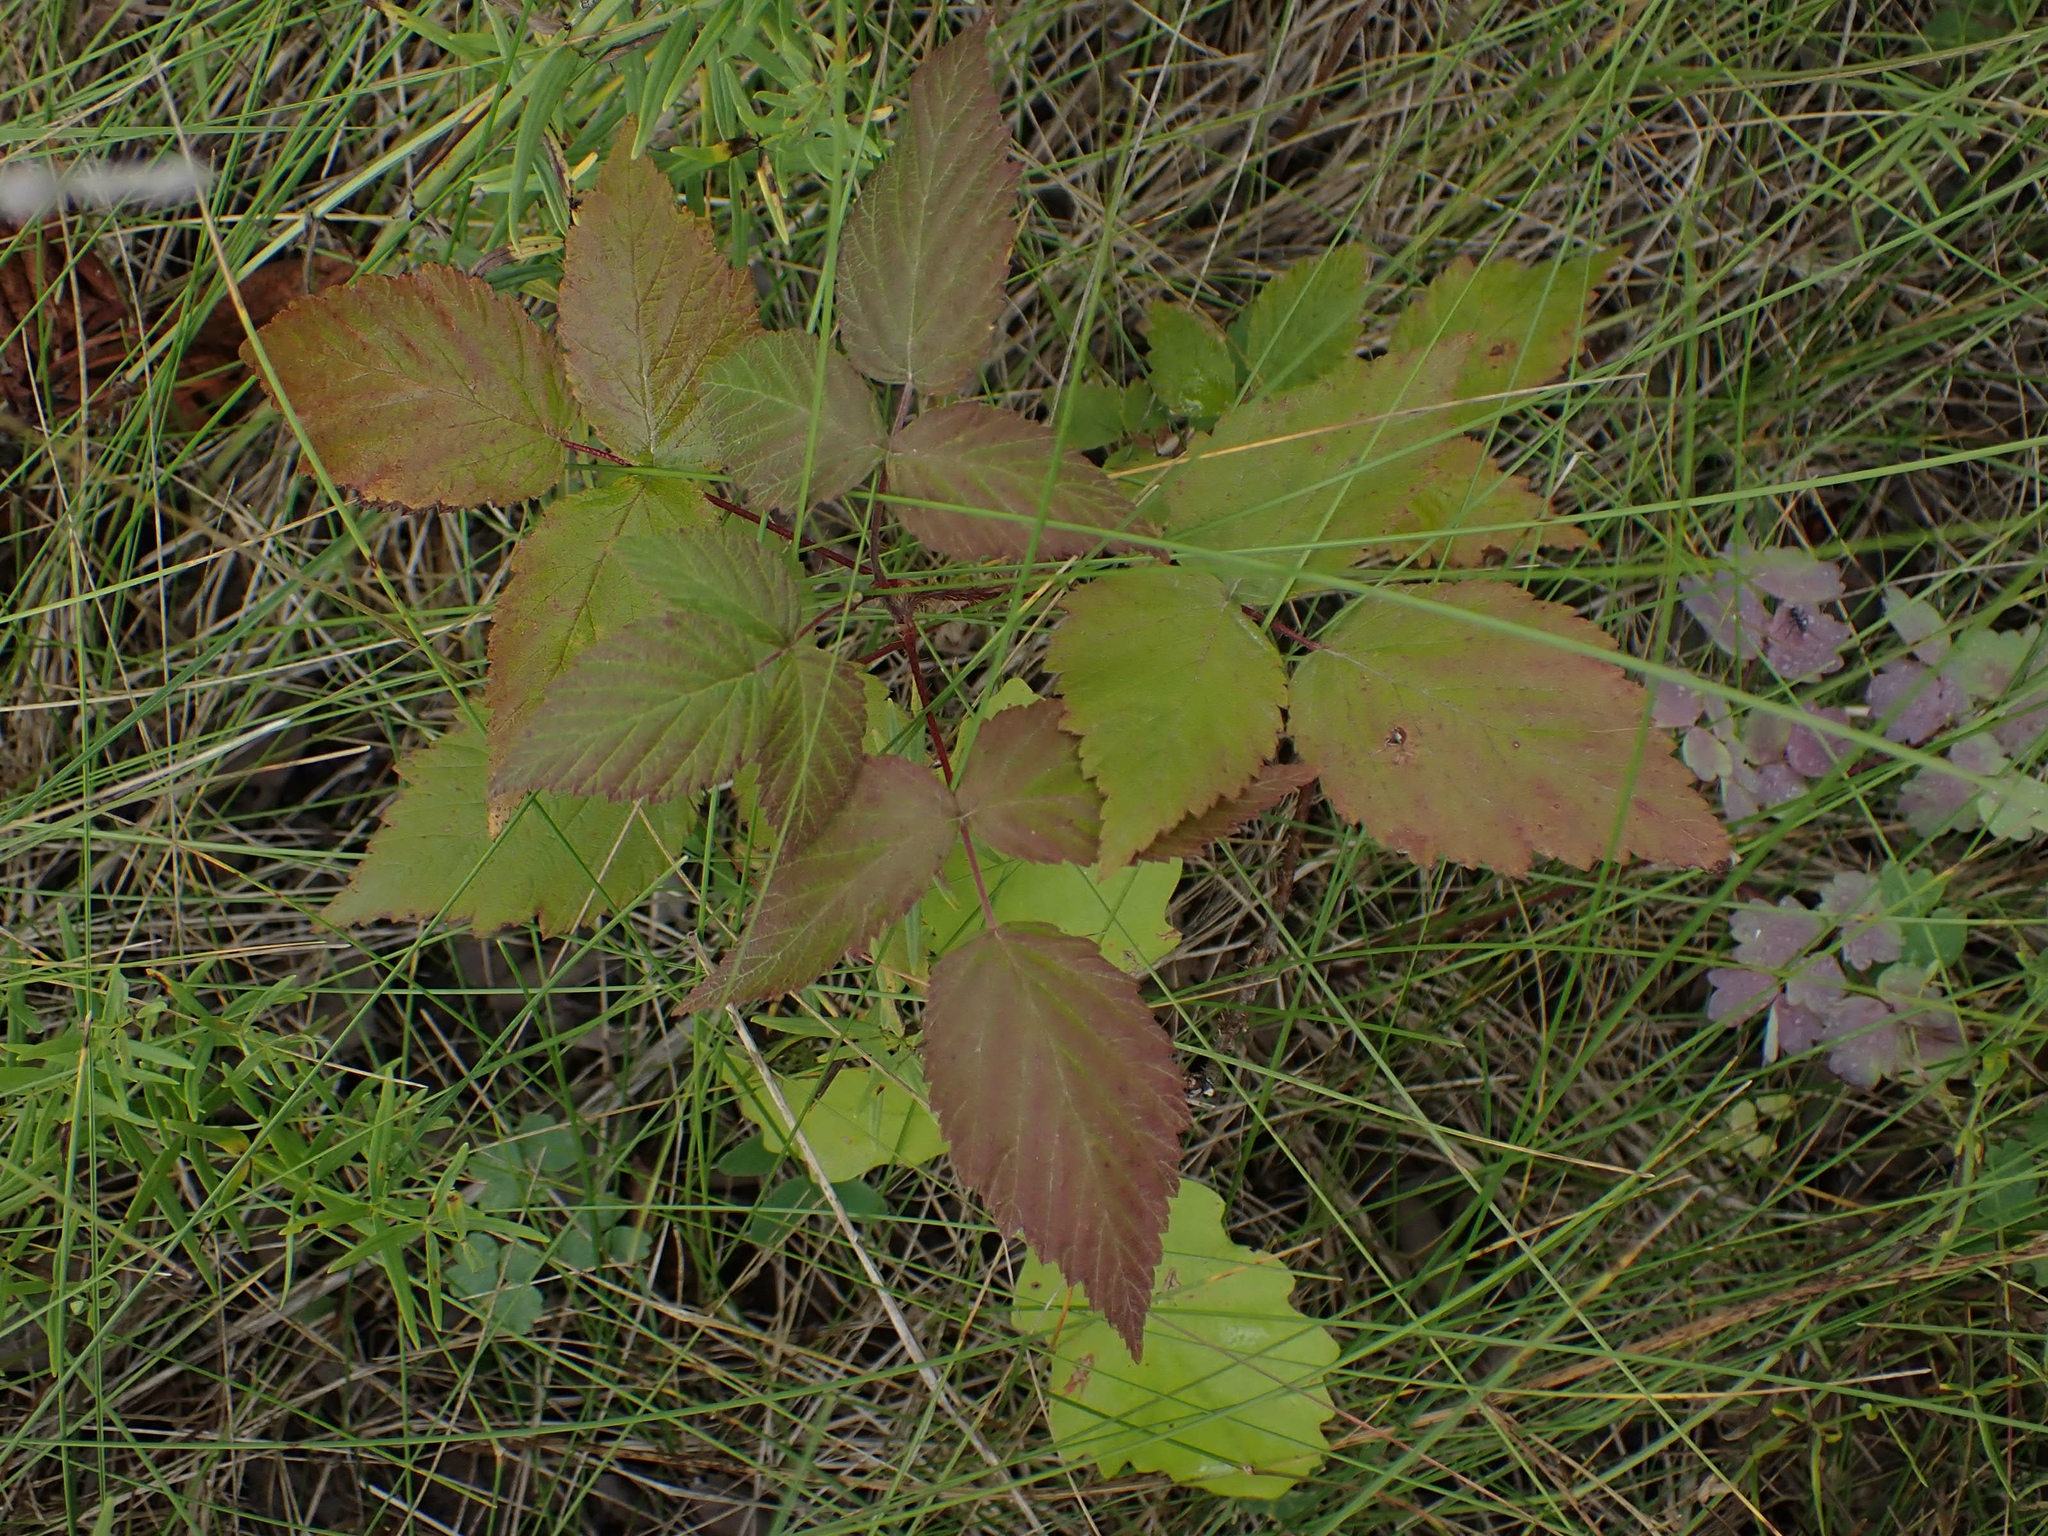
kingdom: Plantae
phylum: Tracheophyta
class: Magnoliopsida
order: Rosales
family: Rosaceae
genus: Rubus
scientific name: Rubus idaeus
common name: Raspberry
